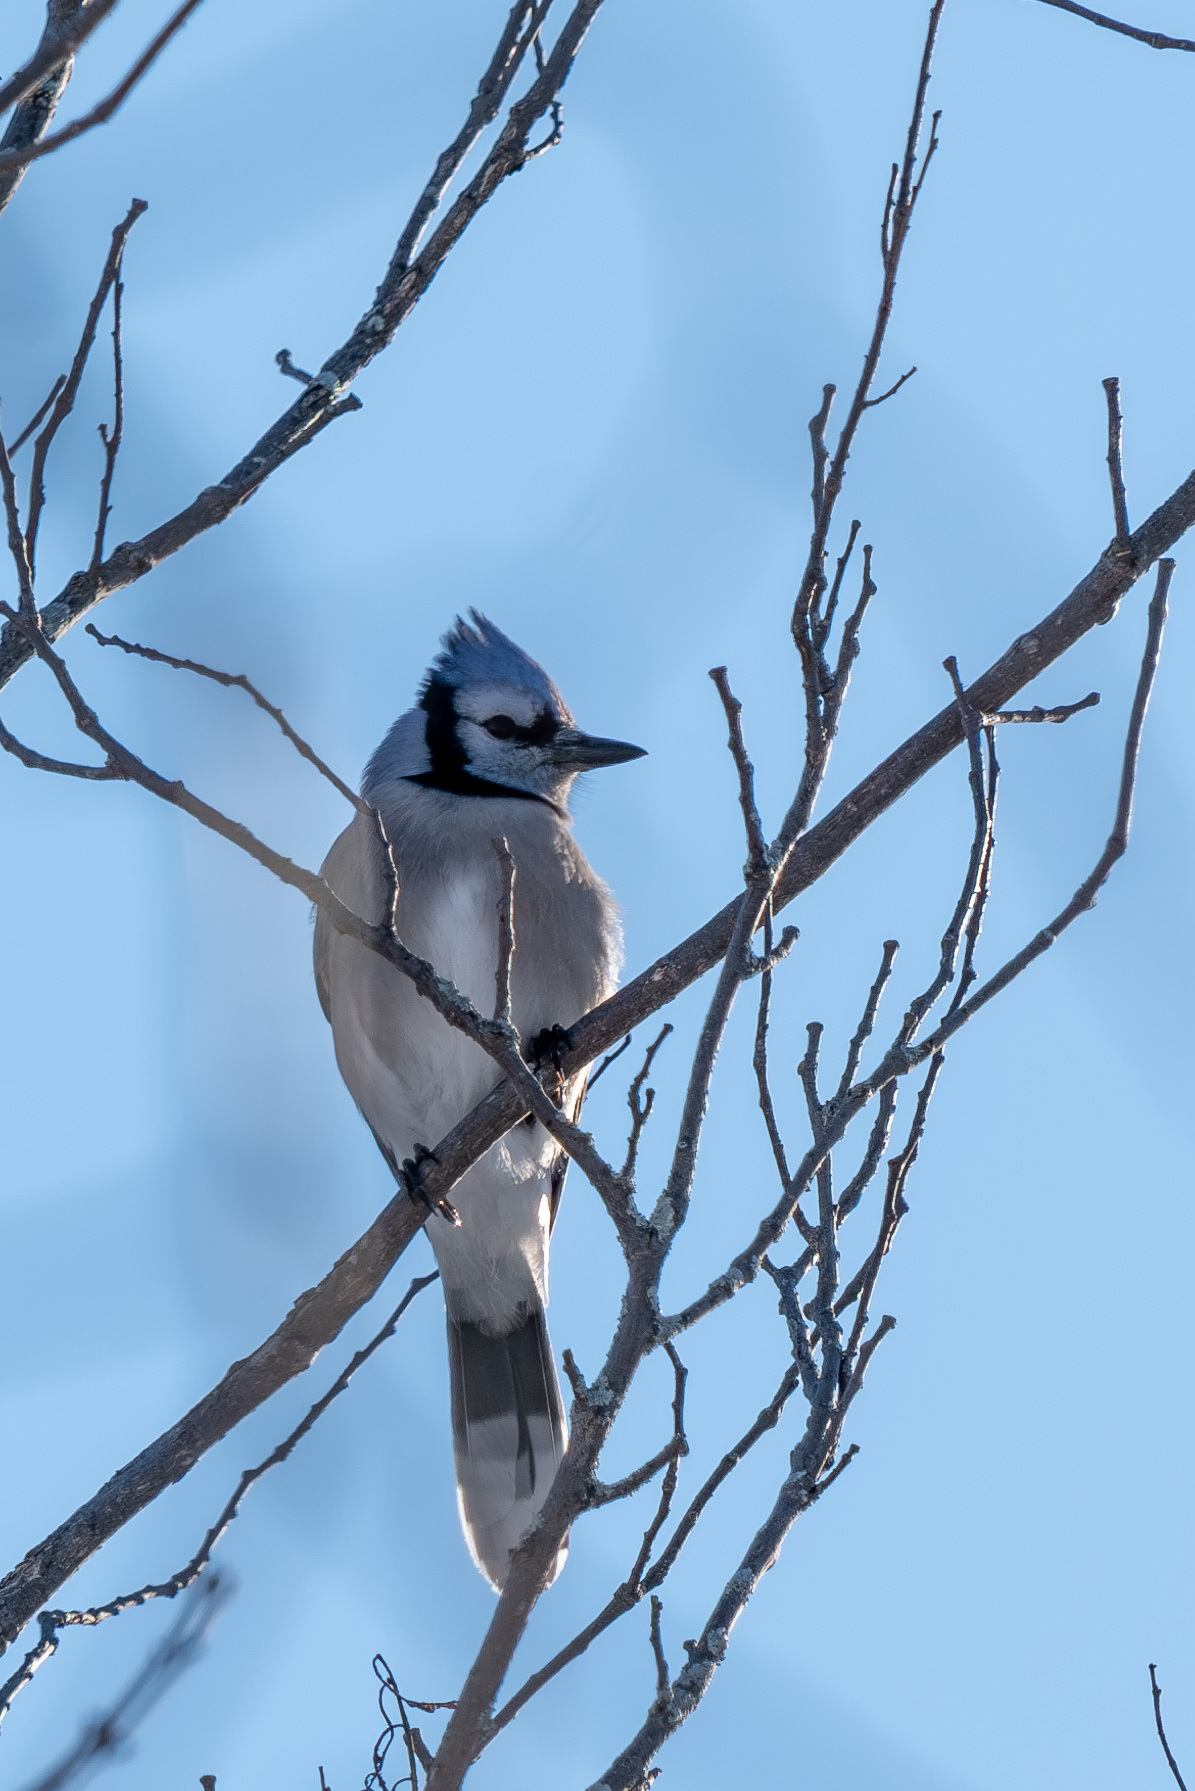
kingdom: Animalia
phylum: Chordata
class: Aves
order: Passeriformes
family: Corvidae
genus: Cyanocitta
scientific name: Cyanocitta cristata
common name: Blue jay
